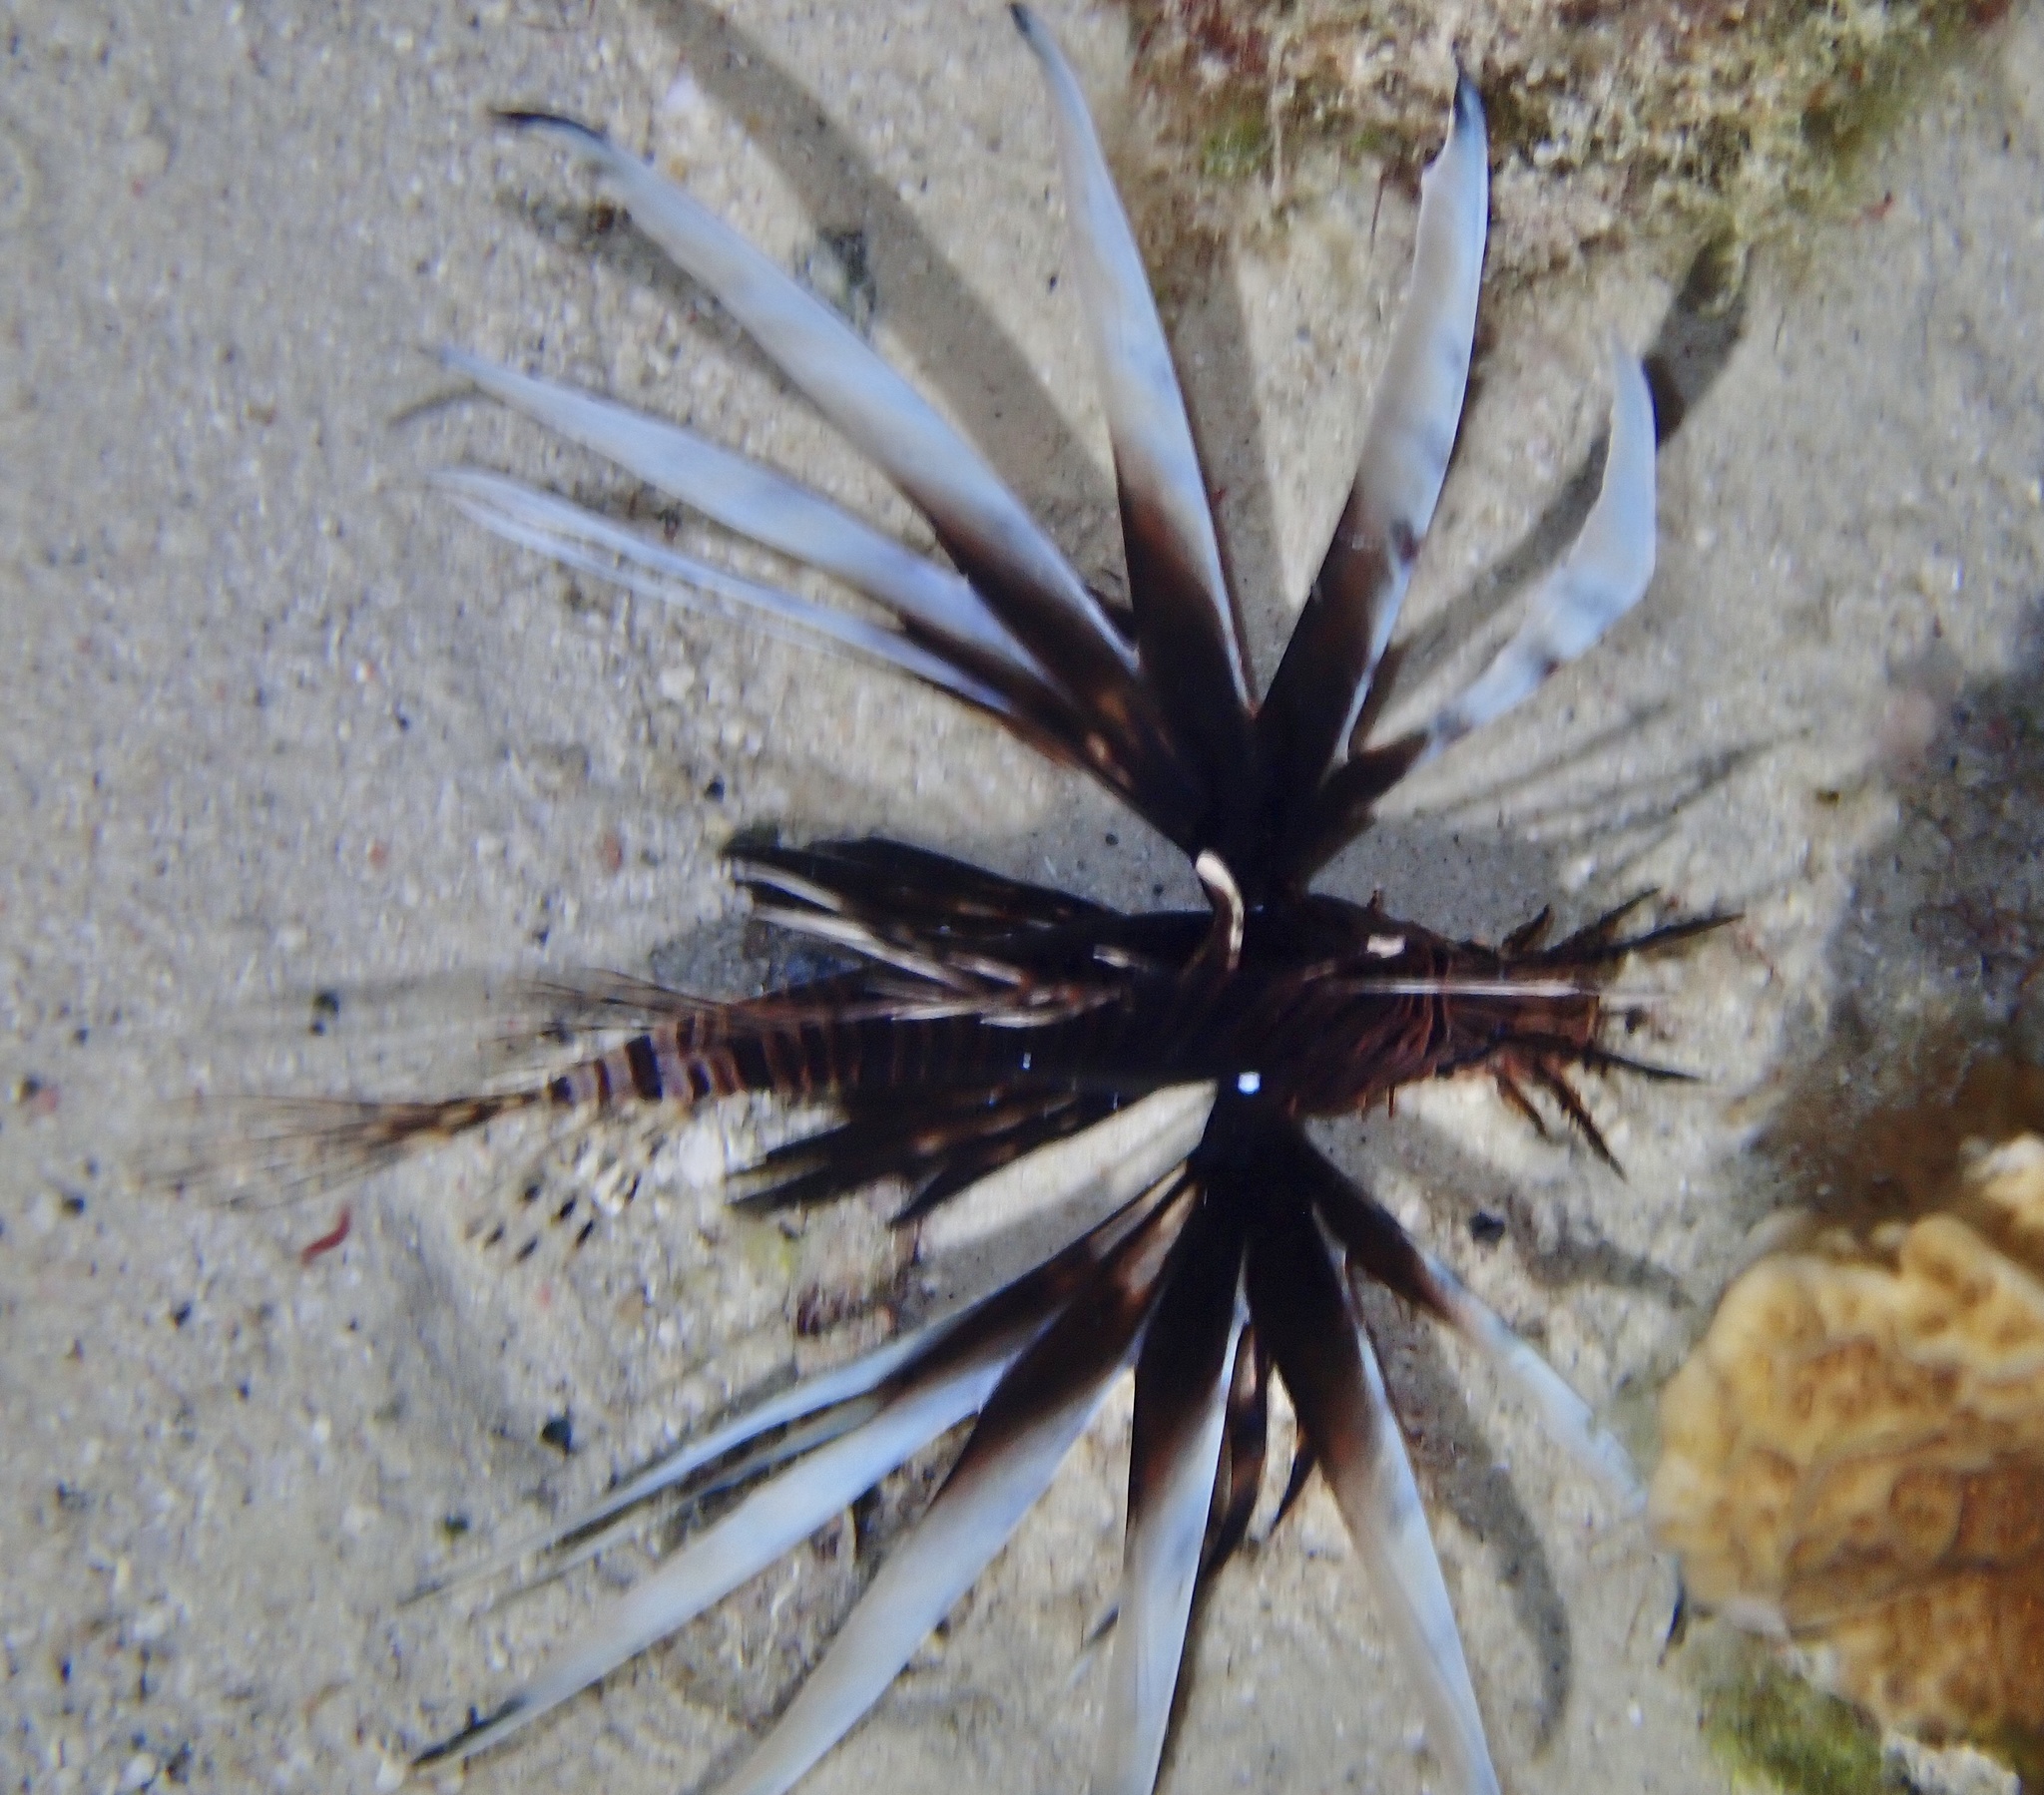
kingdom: Animalia
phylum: Chordata
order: Scorpaeniformes
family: Scorpaenidae
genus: Pterois
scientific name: Pterois volitans
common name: Lionfish
